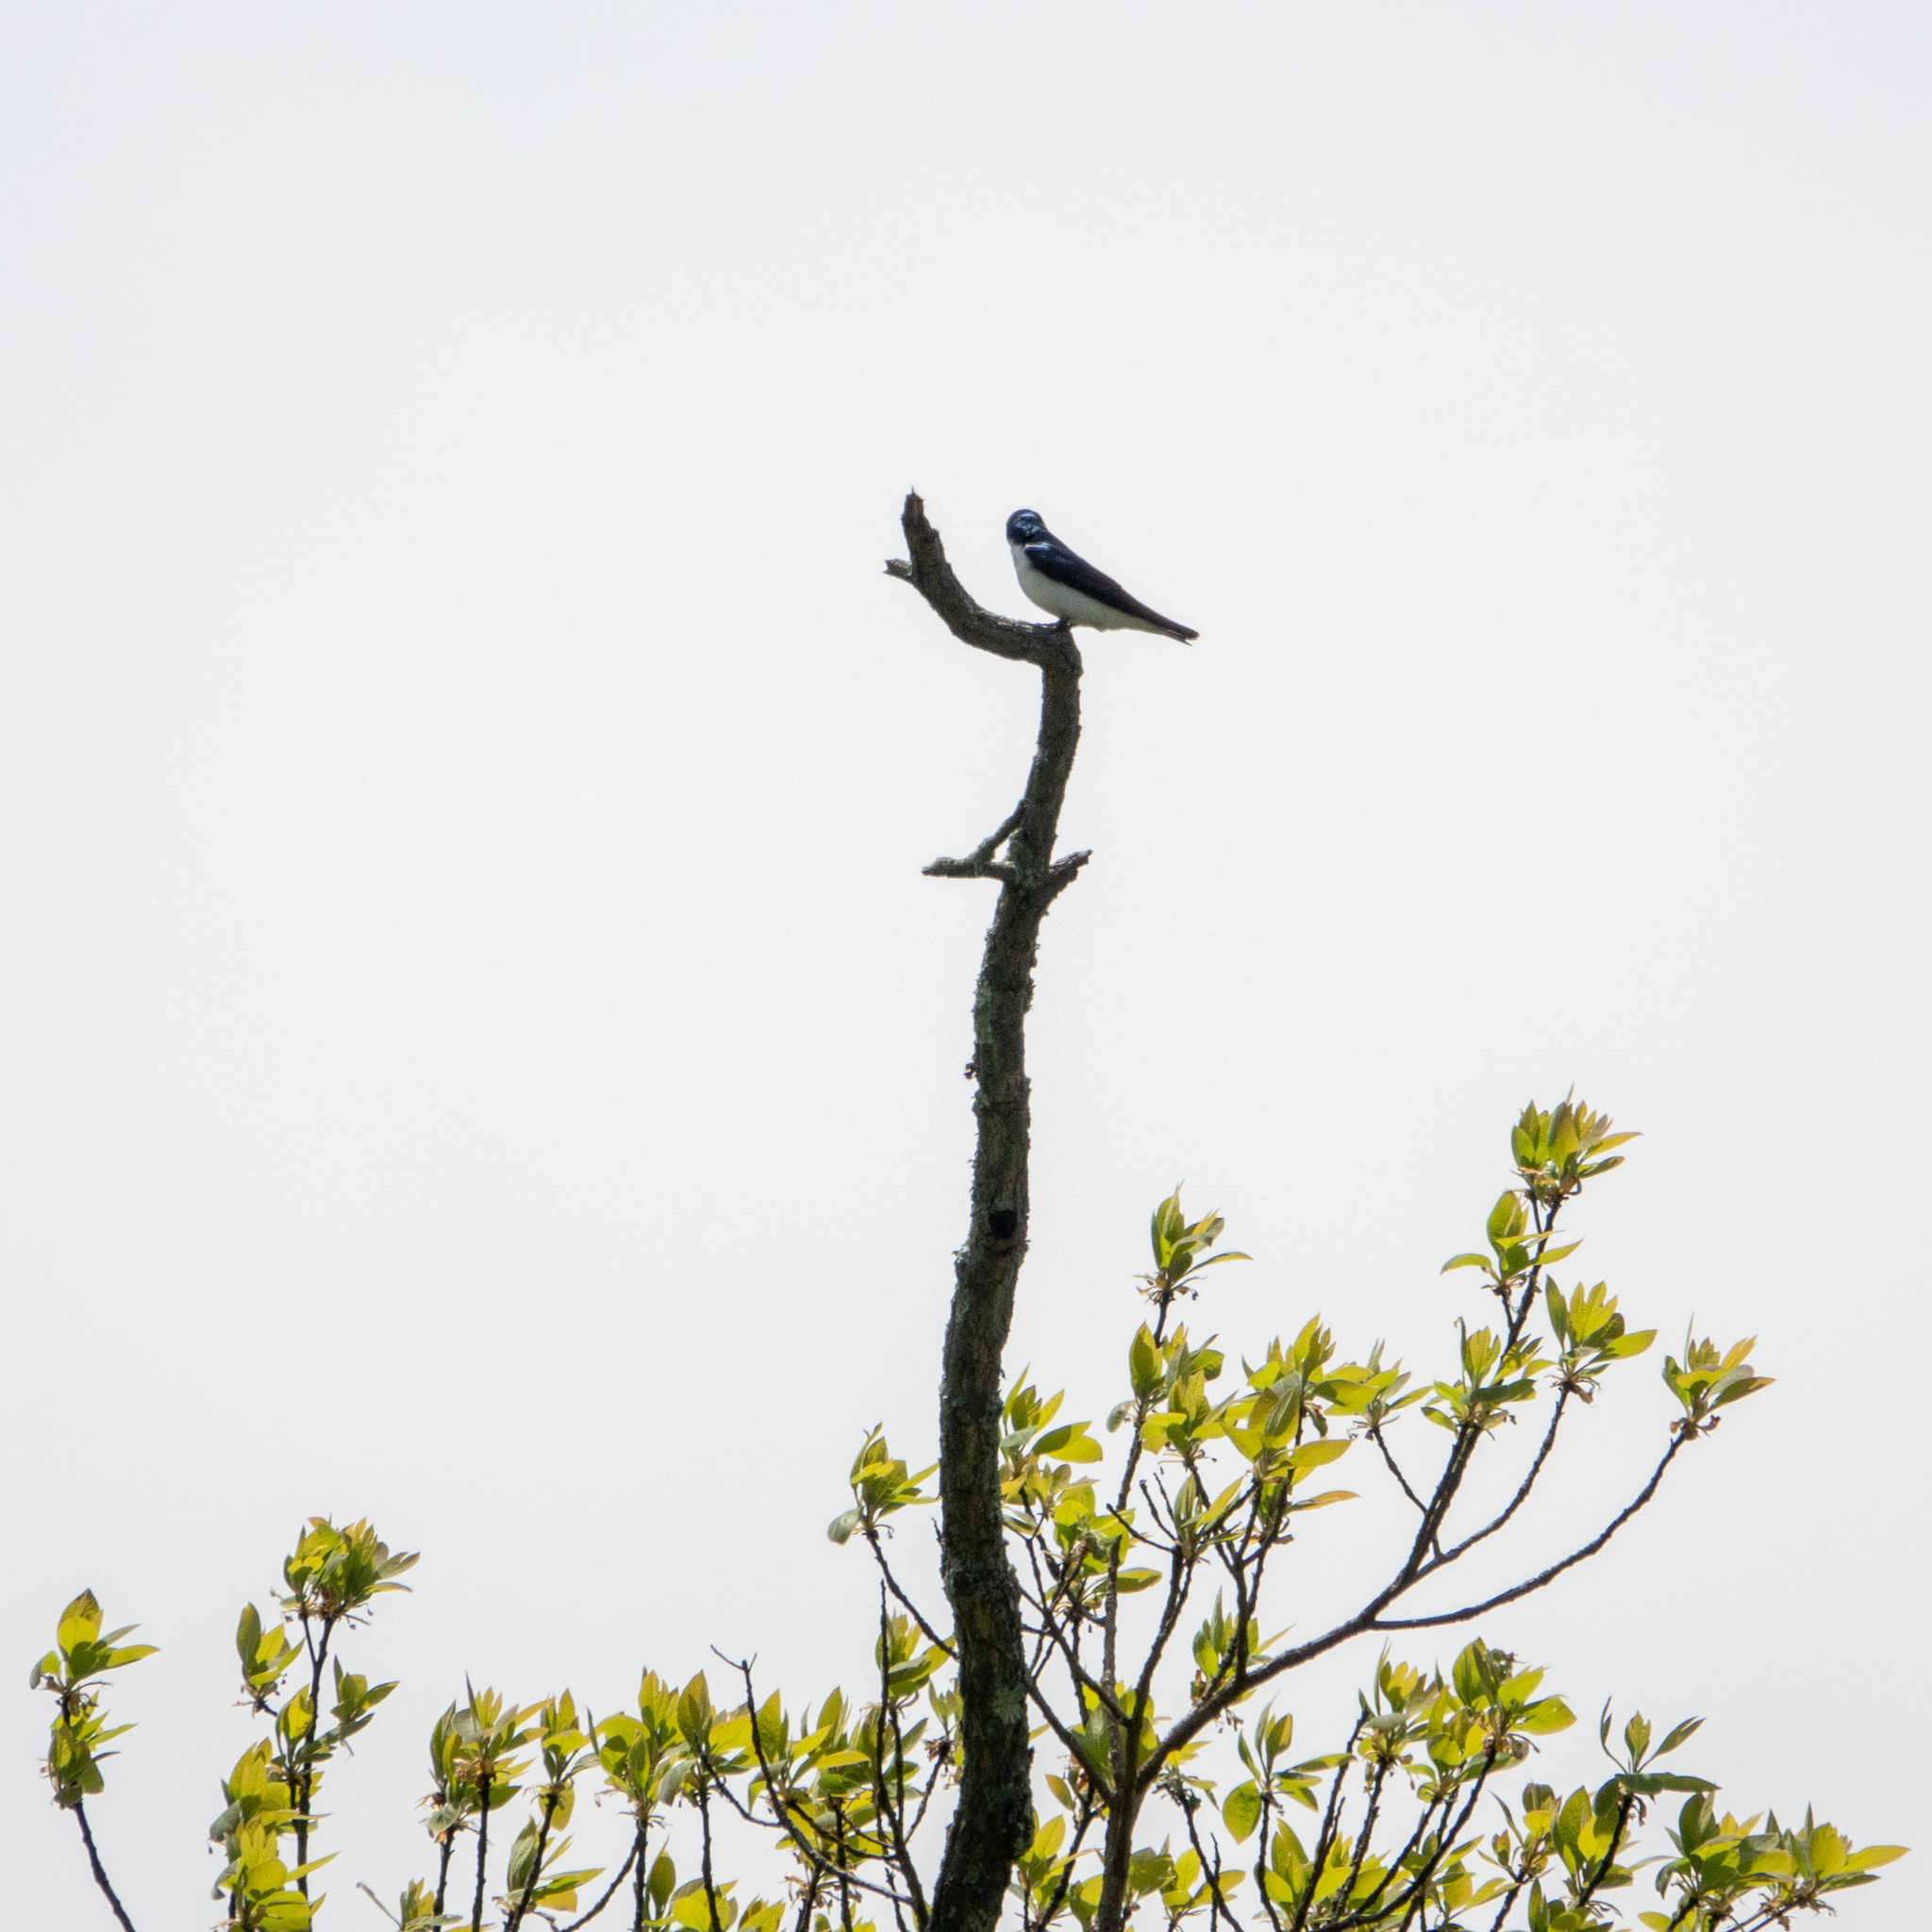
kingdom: Animalia
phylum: Chordata
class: Aves
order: Passeriformes
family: Hirundinidae
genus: Tachycineta
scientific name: Tachycineta bicolor
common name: Tree swallow
